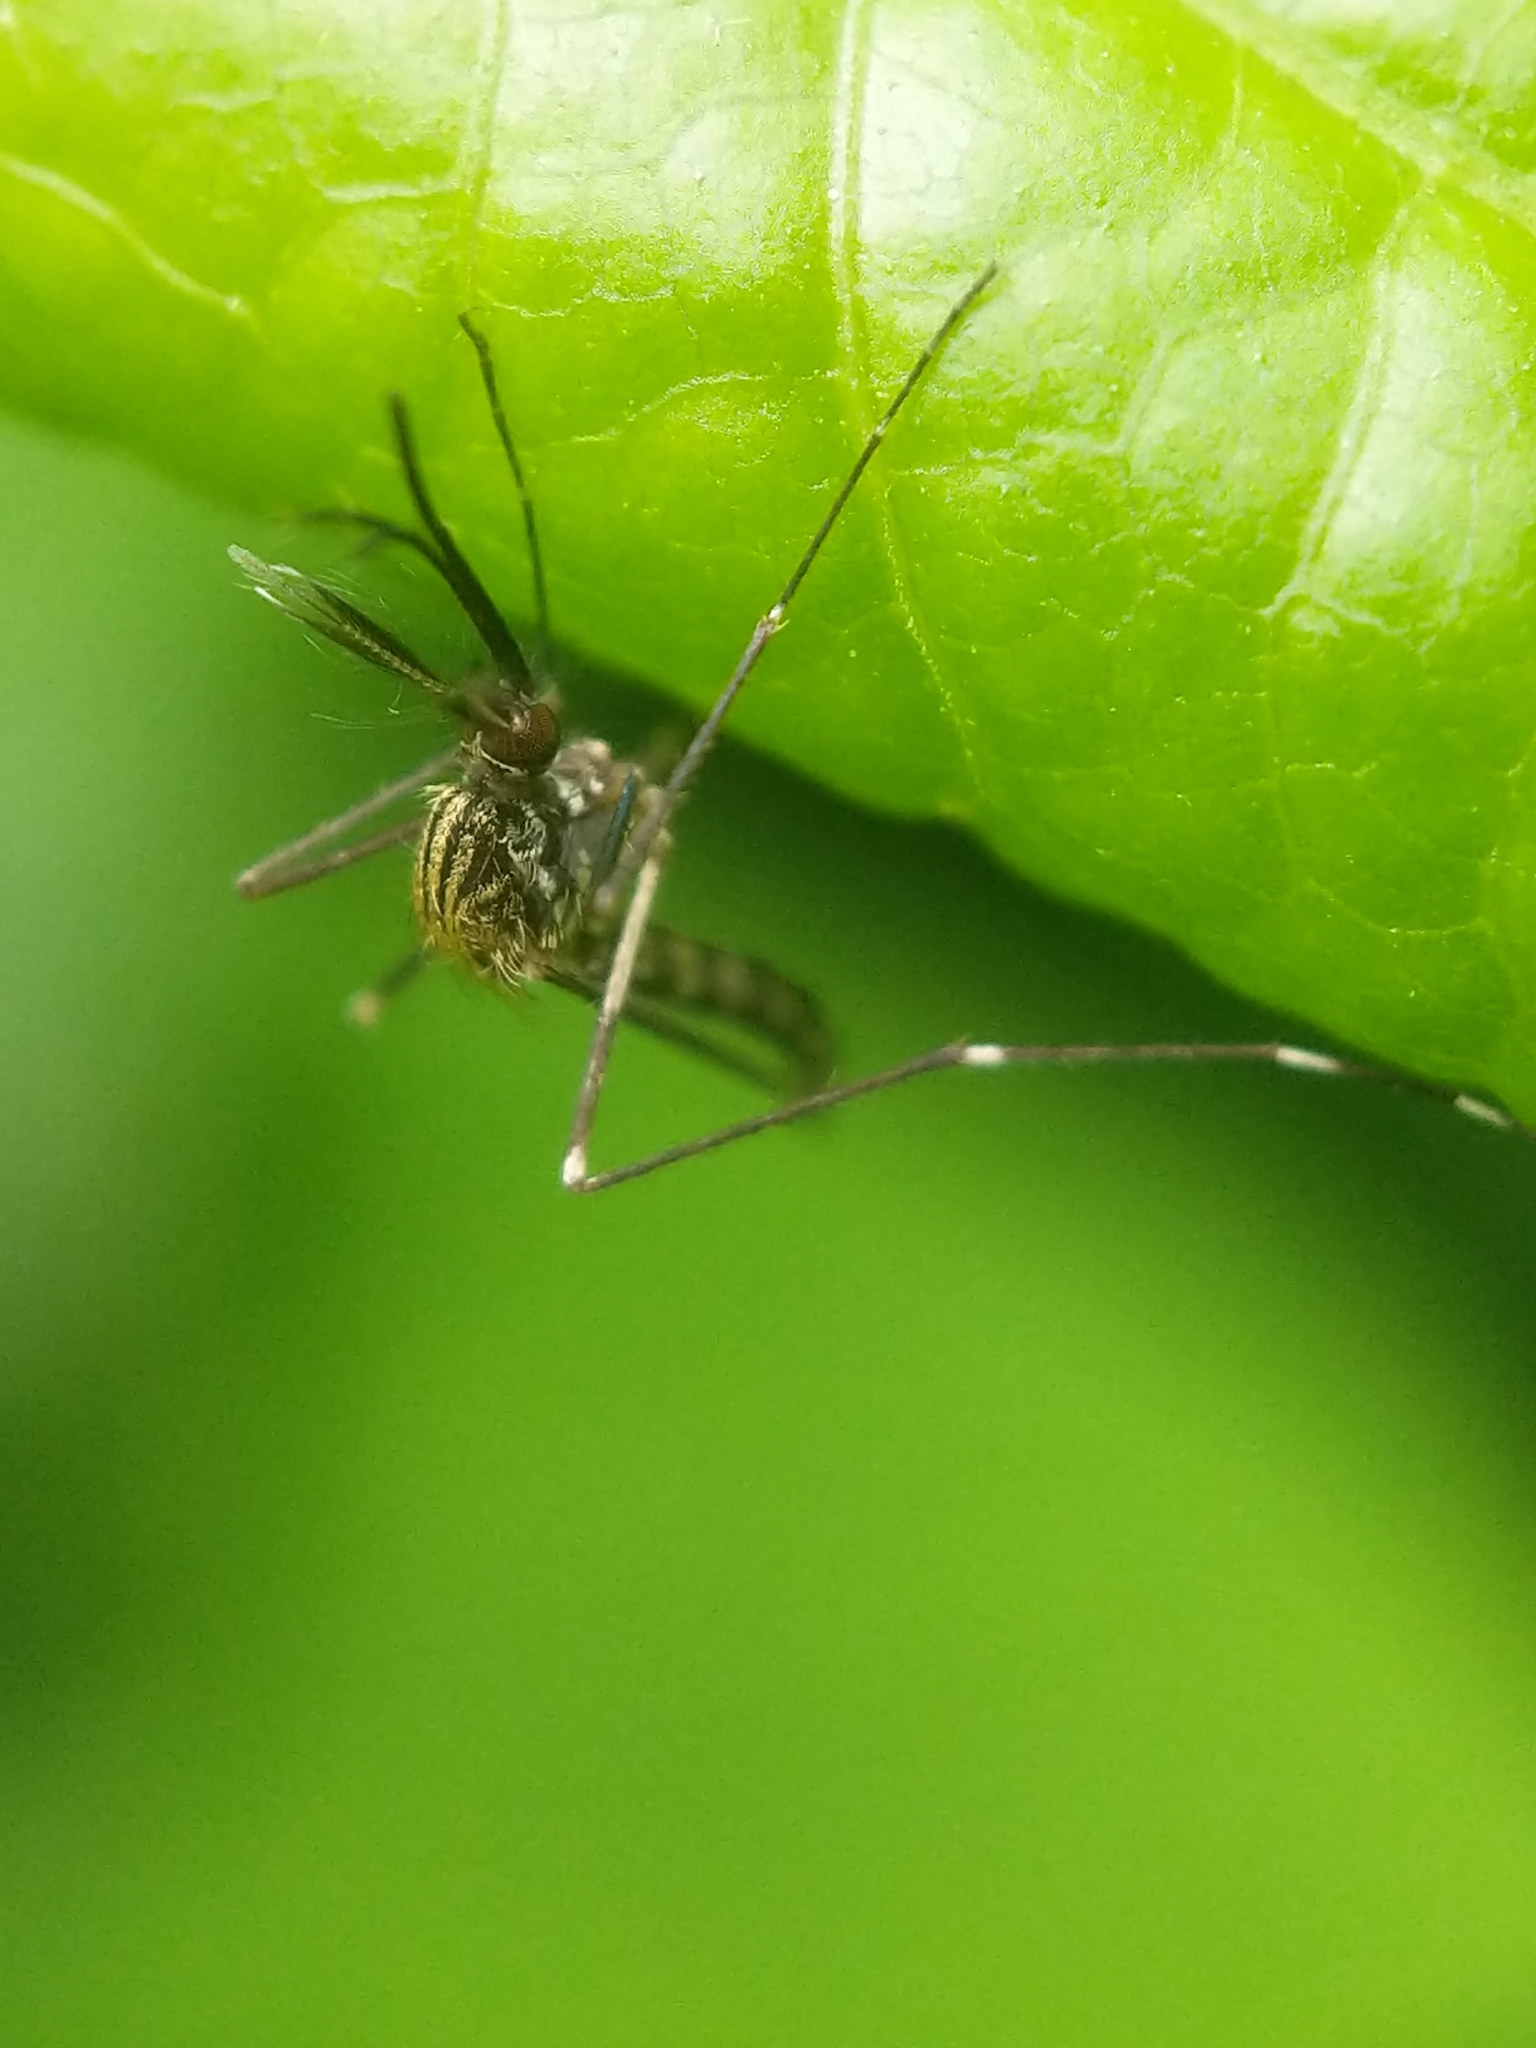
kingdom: Animalia
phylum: Arthropoda
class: Insecta
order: Diptera
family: Culicidae
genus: Aedes
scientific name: Aedes japonicus
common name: Asian bush mosquito
